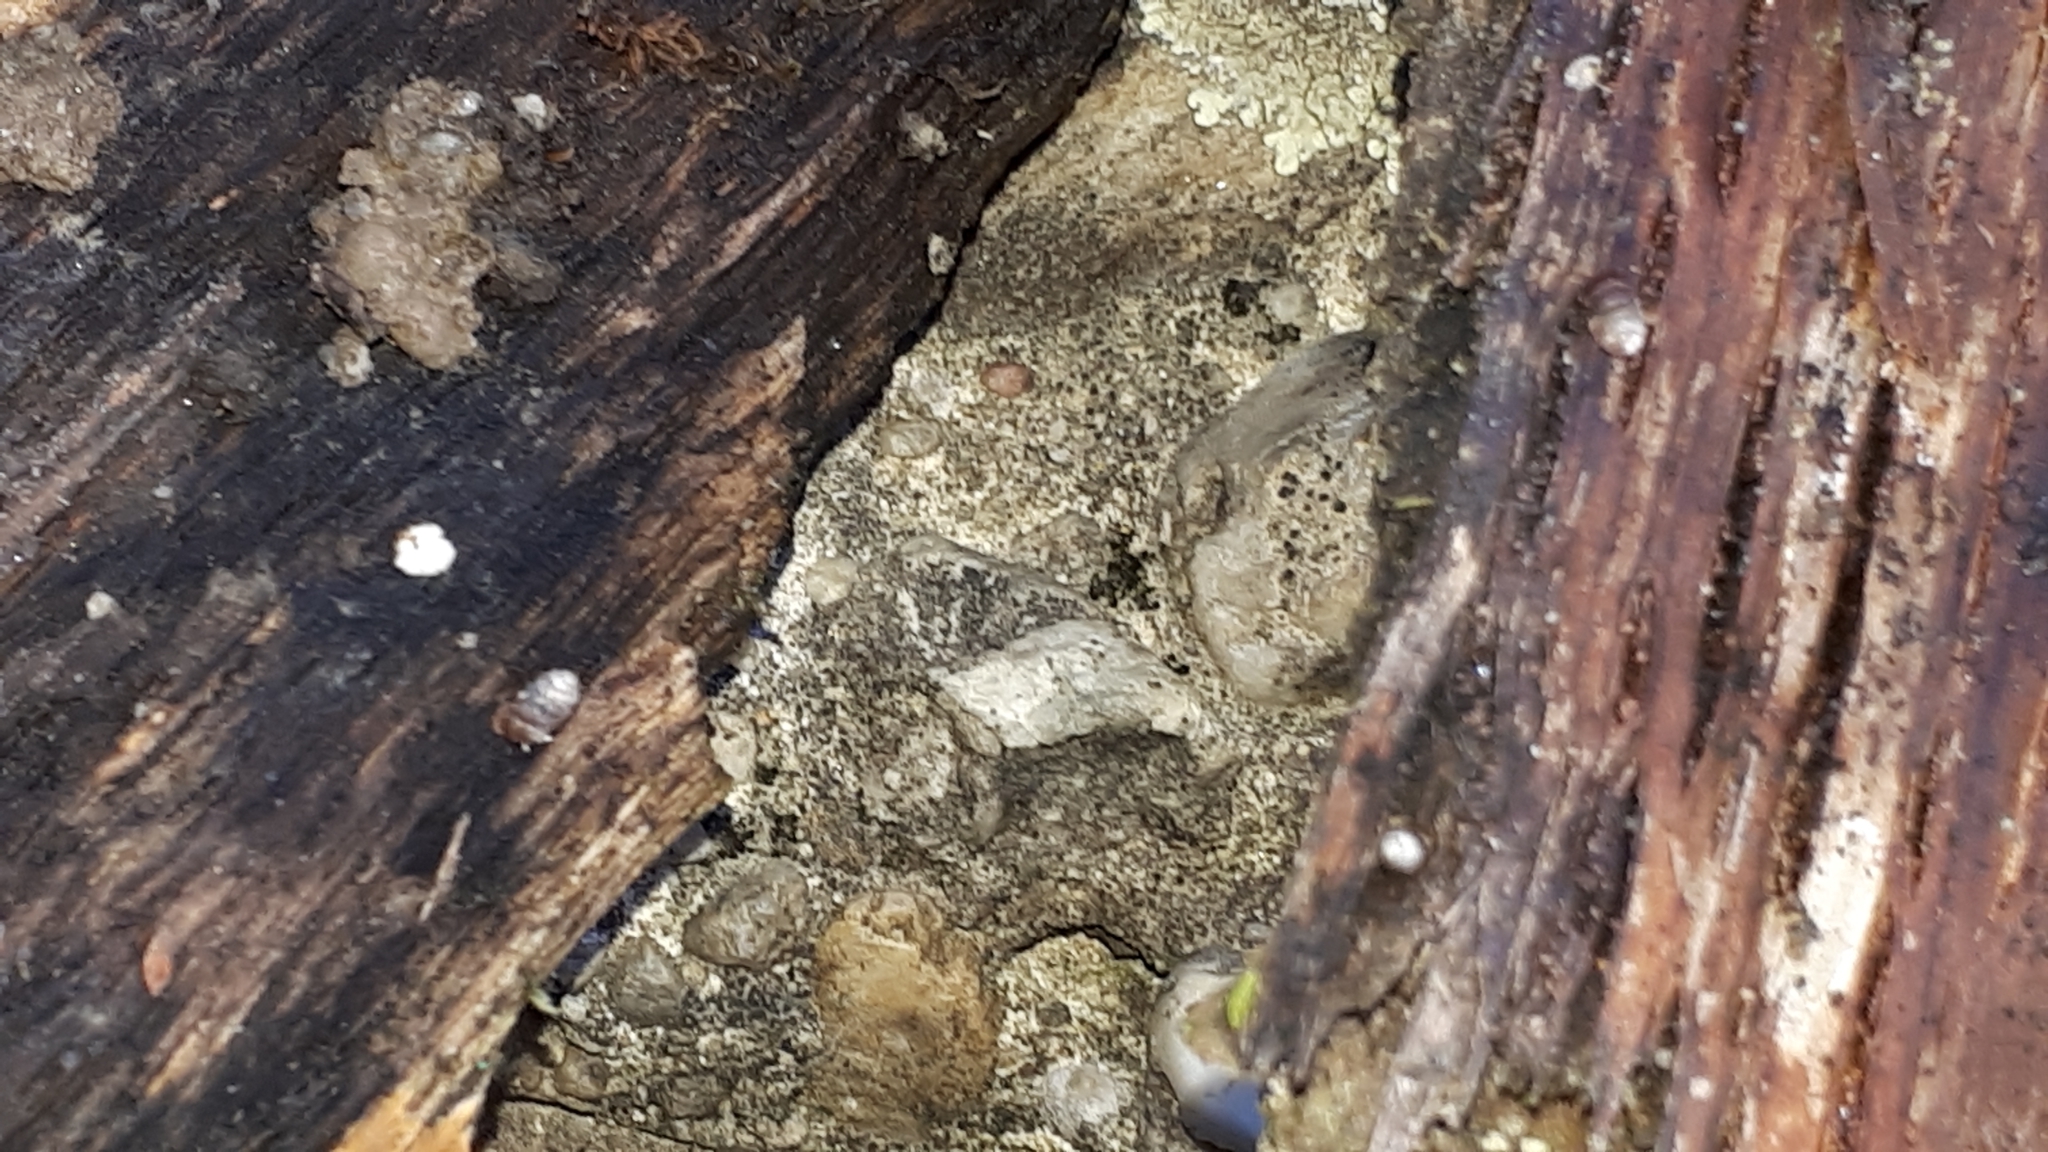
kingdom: Animalia
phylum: Mollusca
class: Gastropoda
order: Stylommatophora
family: Pupillidae
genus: Pupilla
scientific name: Pupilla muscorum
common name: Moss chrysalis snail
